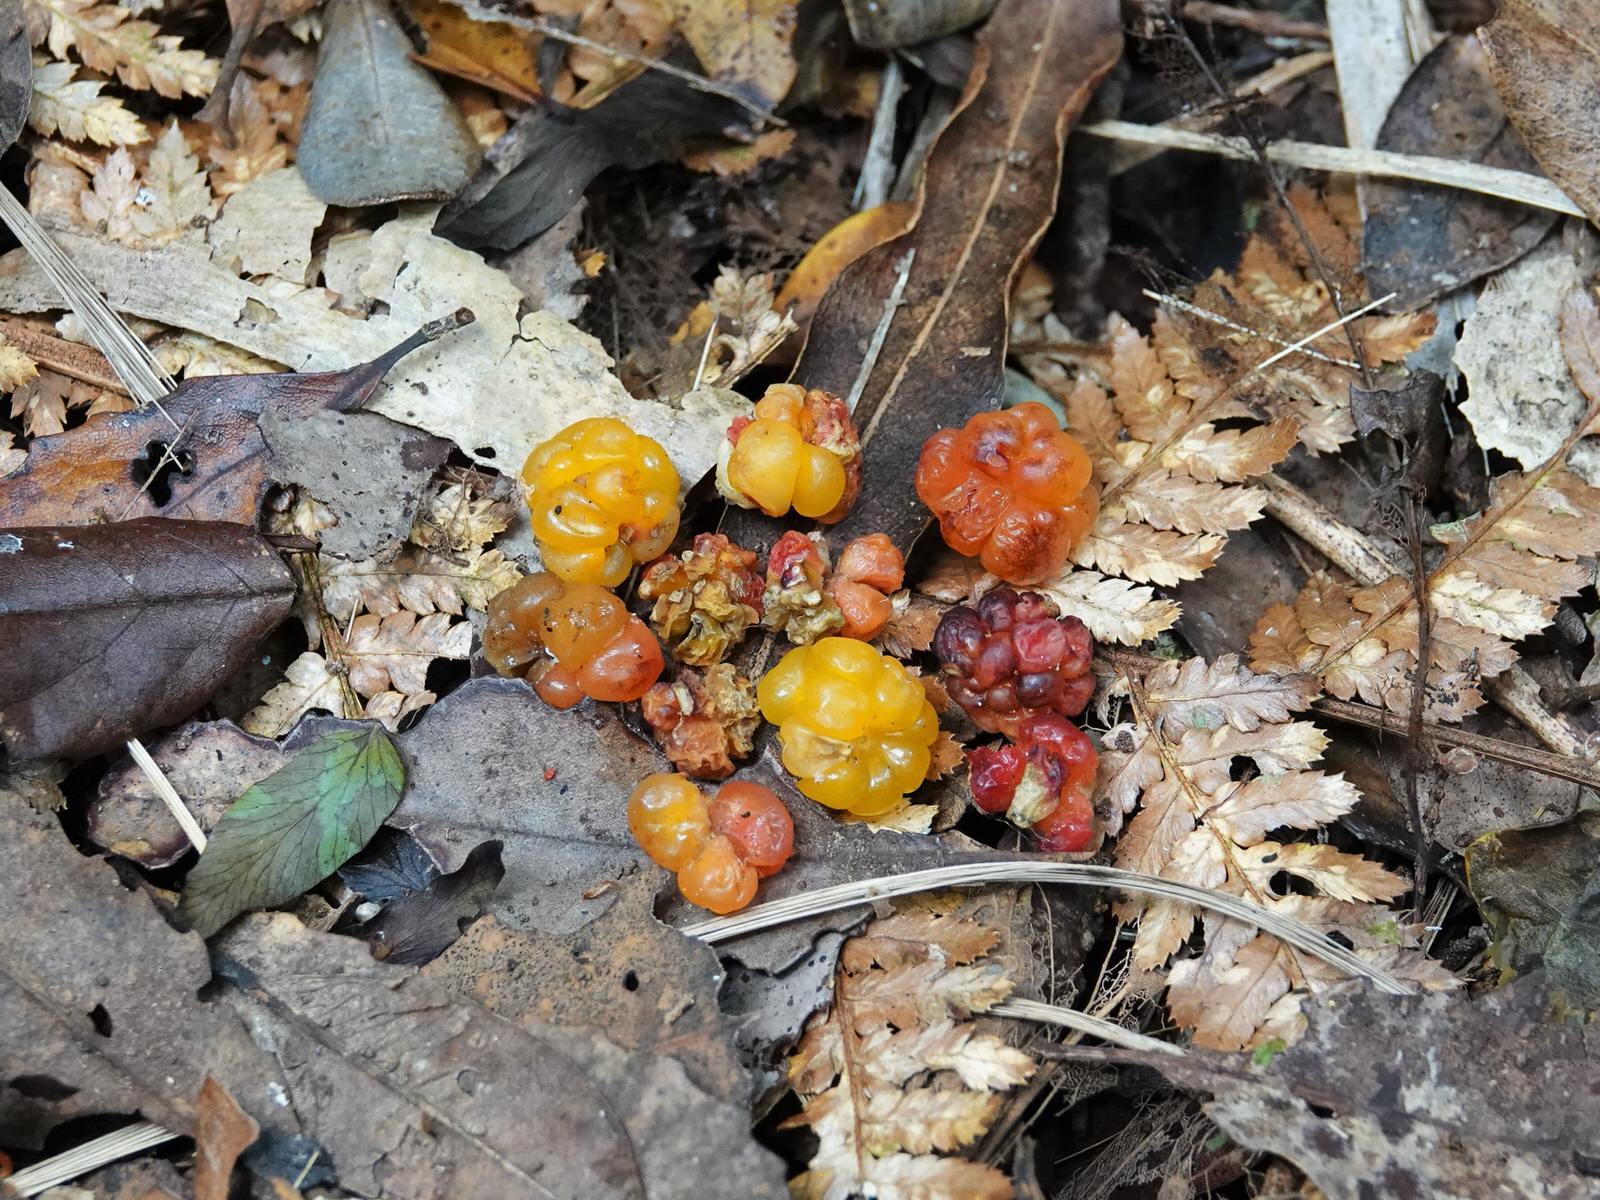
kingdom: Plantae
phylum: Tracheophyta
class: Magnoliopsida
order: Rosales
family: Rosaceae
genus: Rubus
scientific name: Rubus australis
